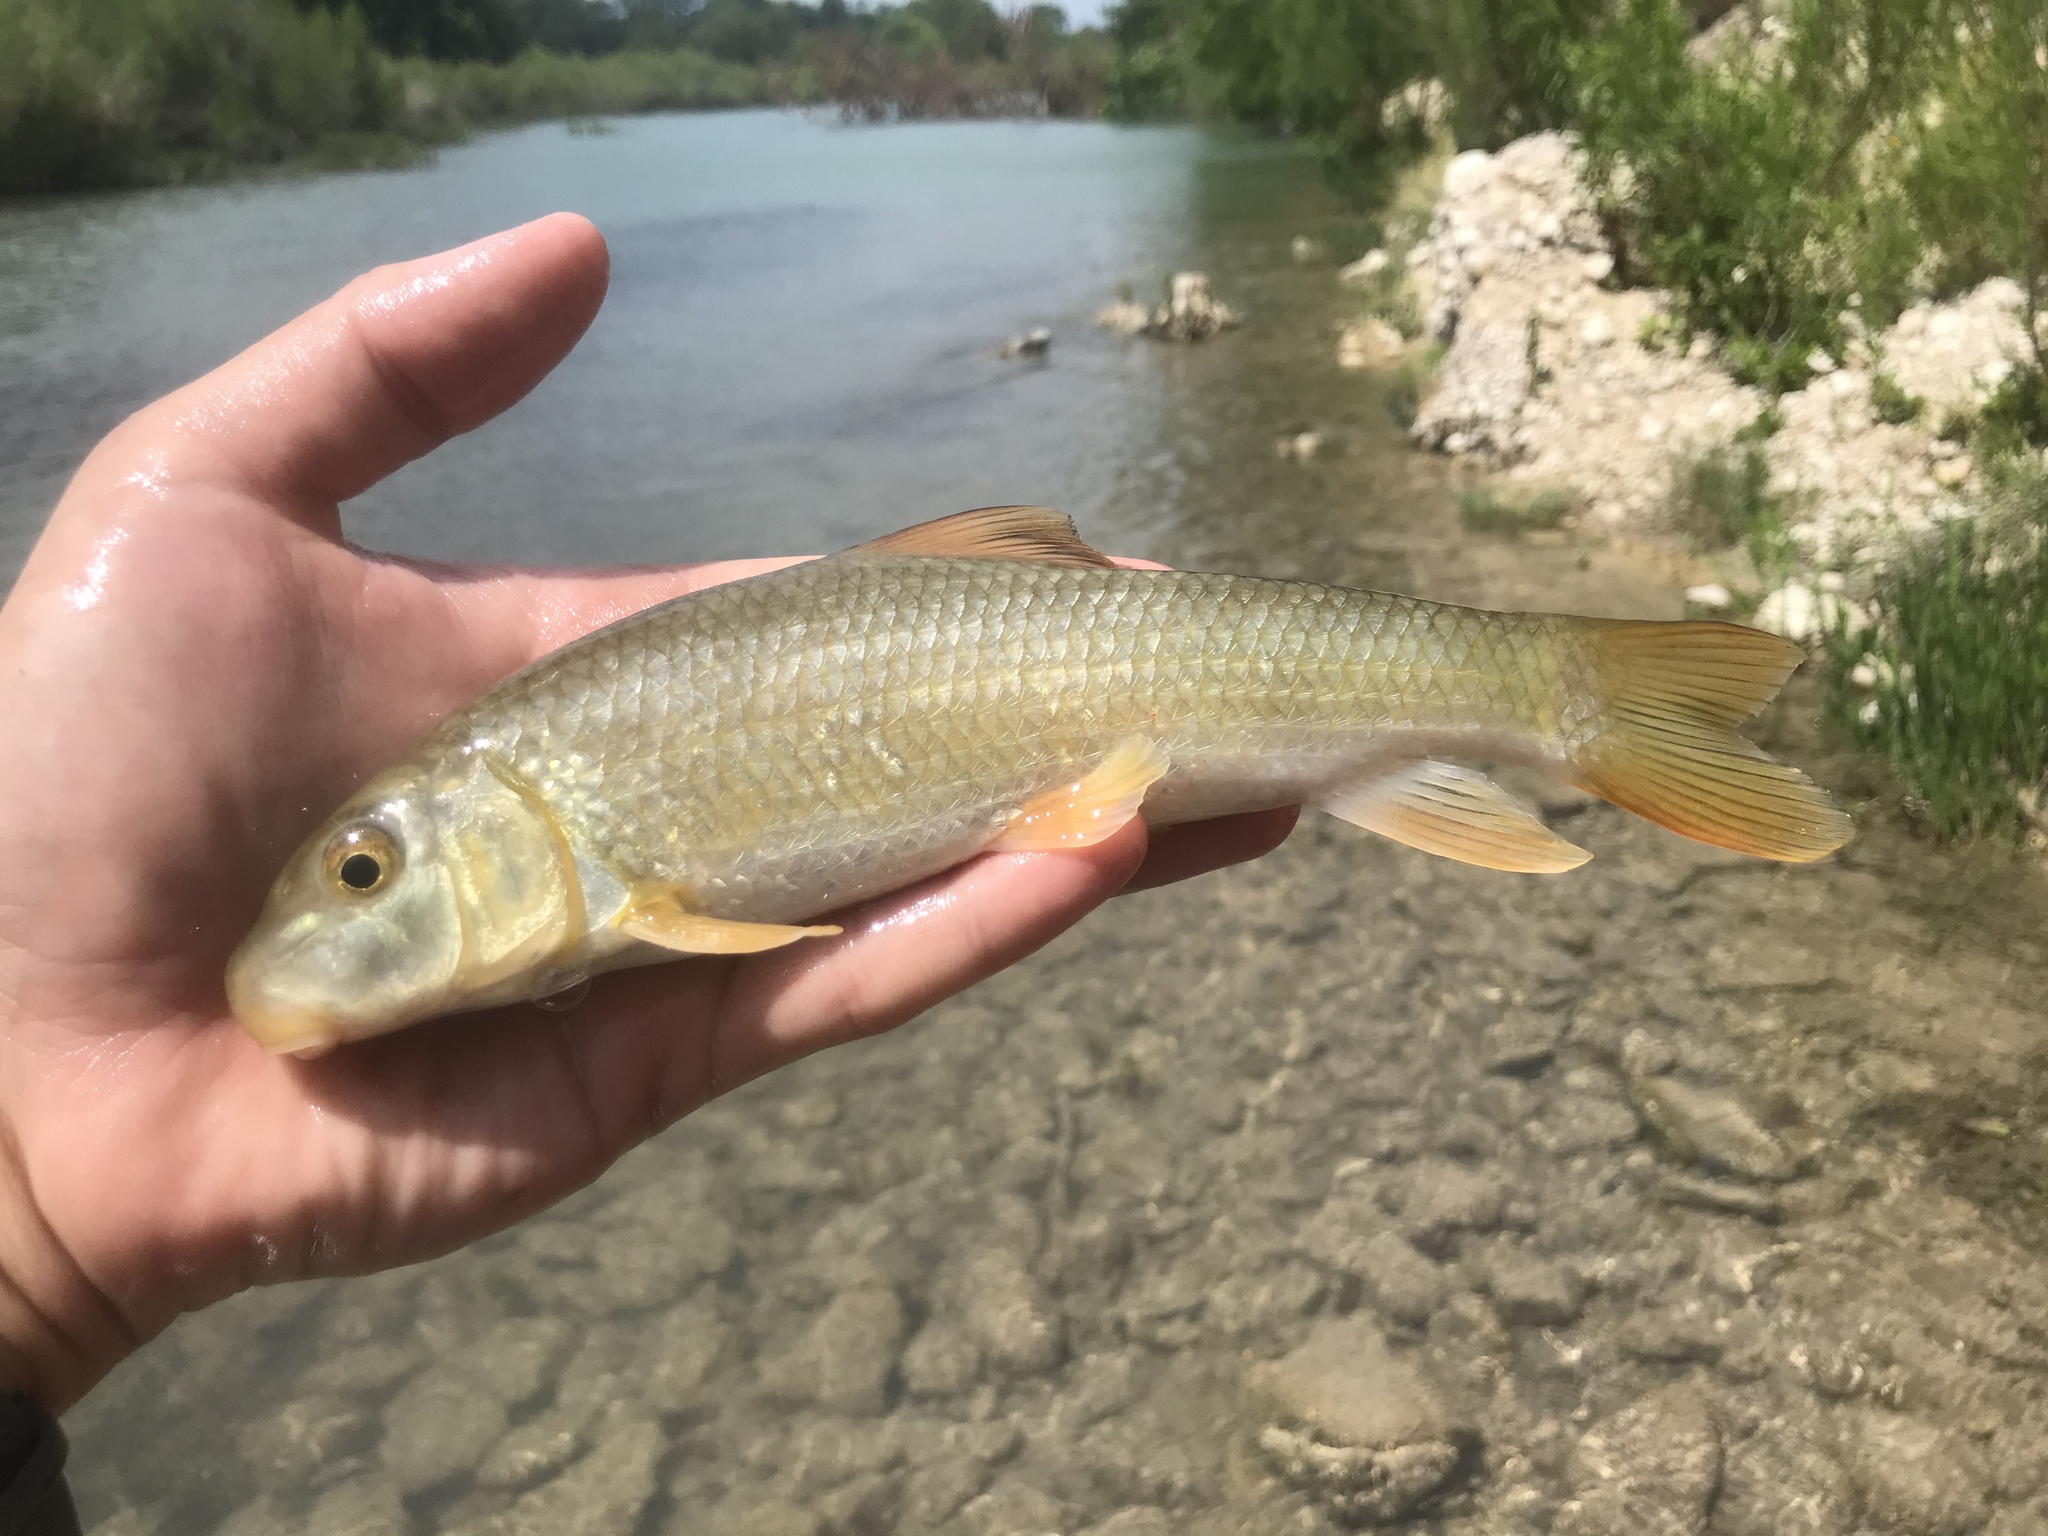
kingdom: Animalia
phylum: Chordata
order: Cypriniformes
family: Catostomidae
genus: Moxostoma
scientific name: Moxostoma congestum
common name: Gray redhorse
